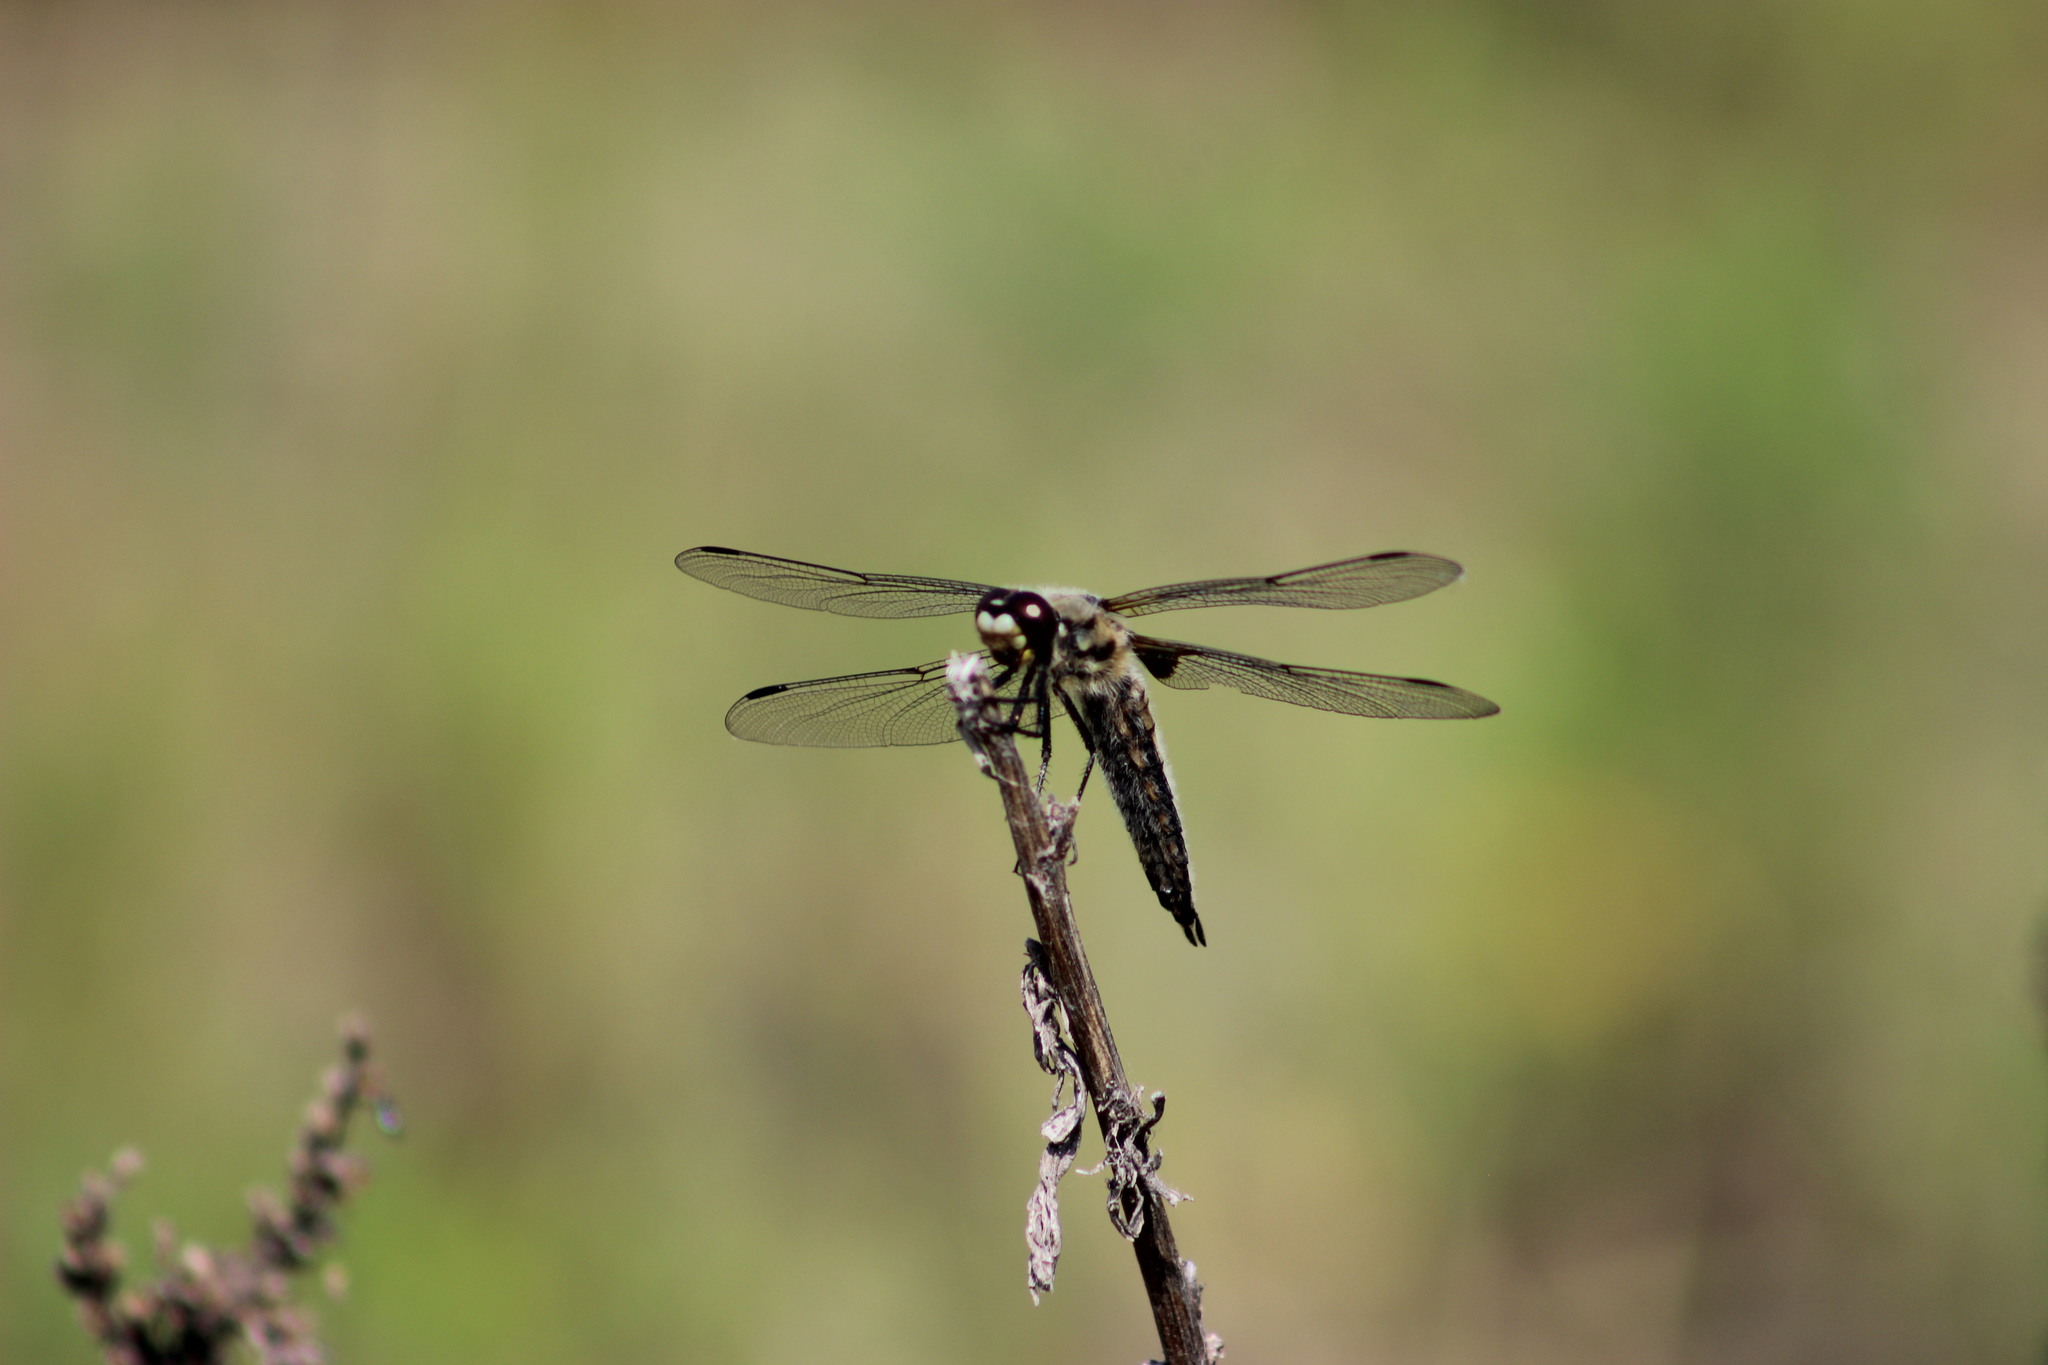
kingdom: Animalia
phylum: Arthropoda
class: Insecta
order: Odonata
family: Libellulidae
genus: Libellula
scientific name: Libellula quadrimaculata
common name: Four-spotted chaser
